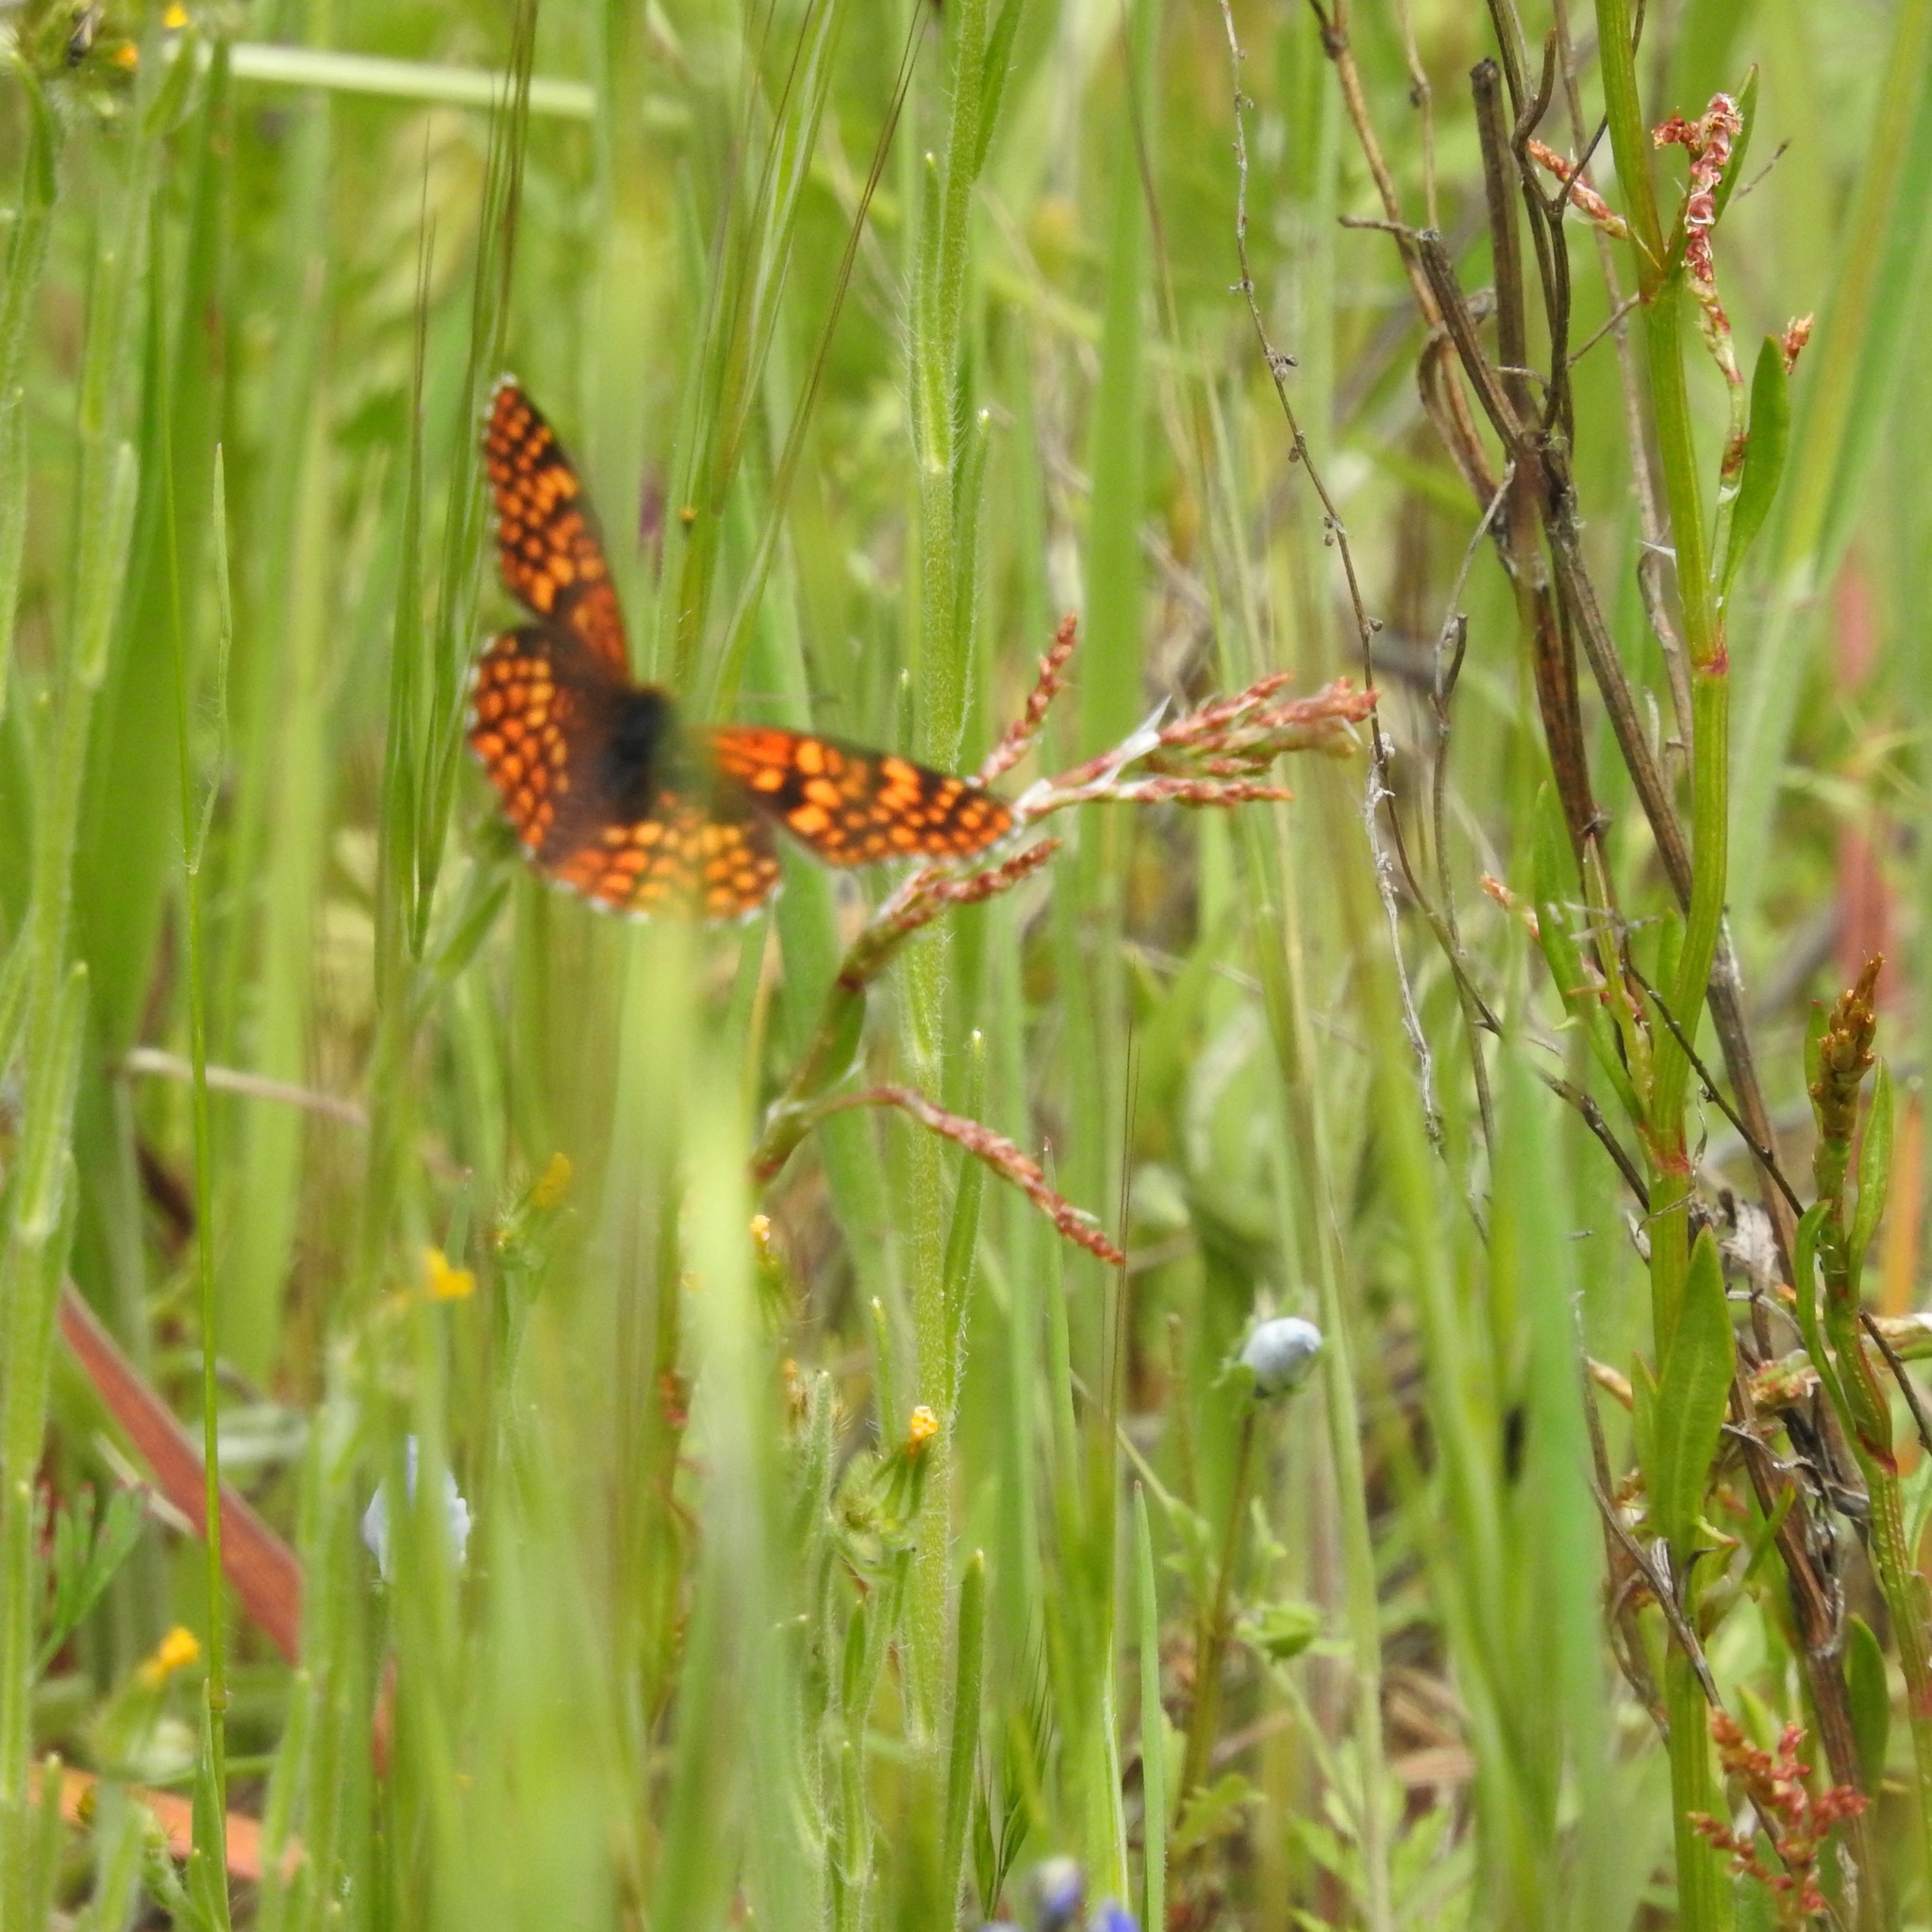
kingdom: Animalia
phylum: Arthropoda
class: Insecta
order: Lepidoptera
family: Nymphalidae
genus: Chlosyne
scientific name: Chlosyne palla
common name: Northern checkerspot
